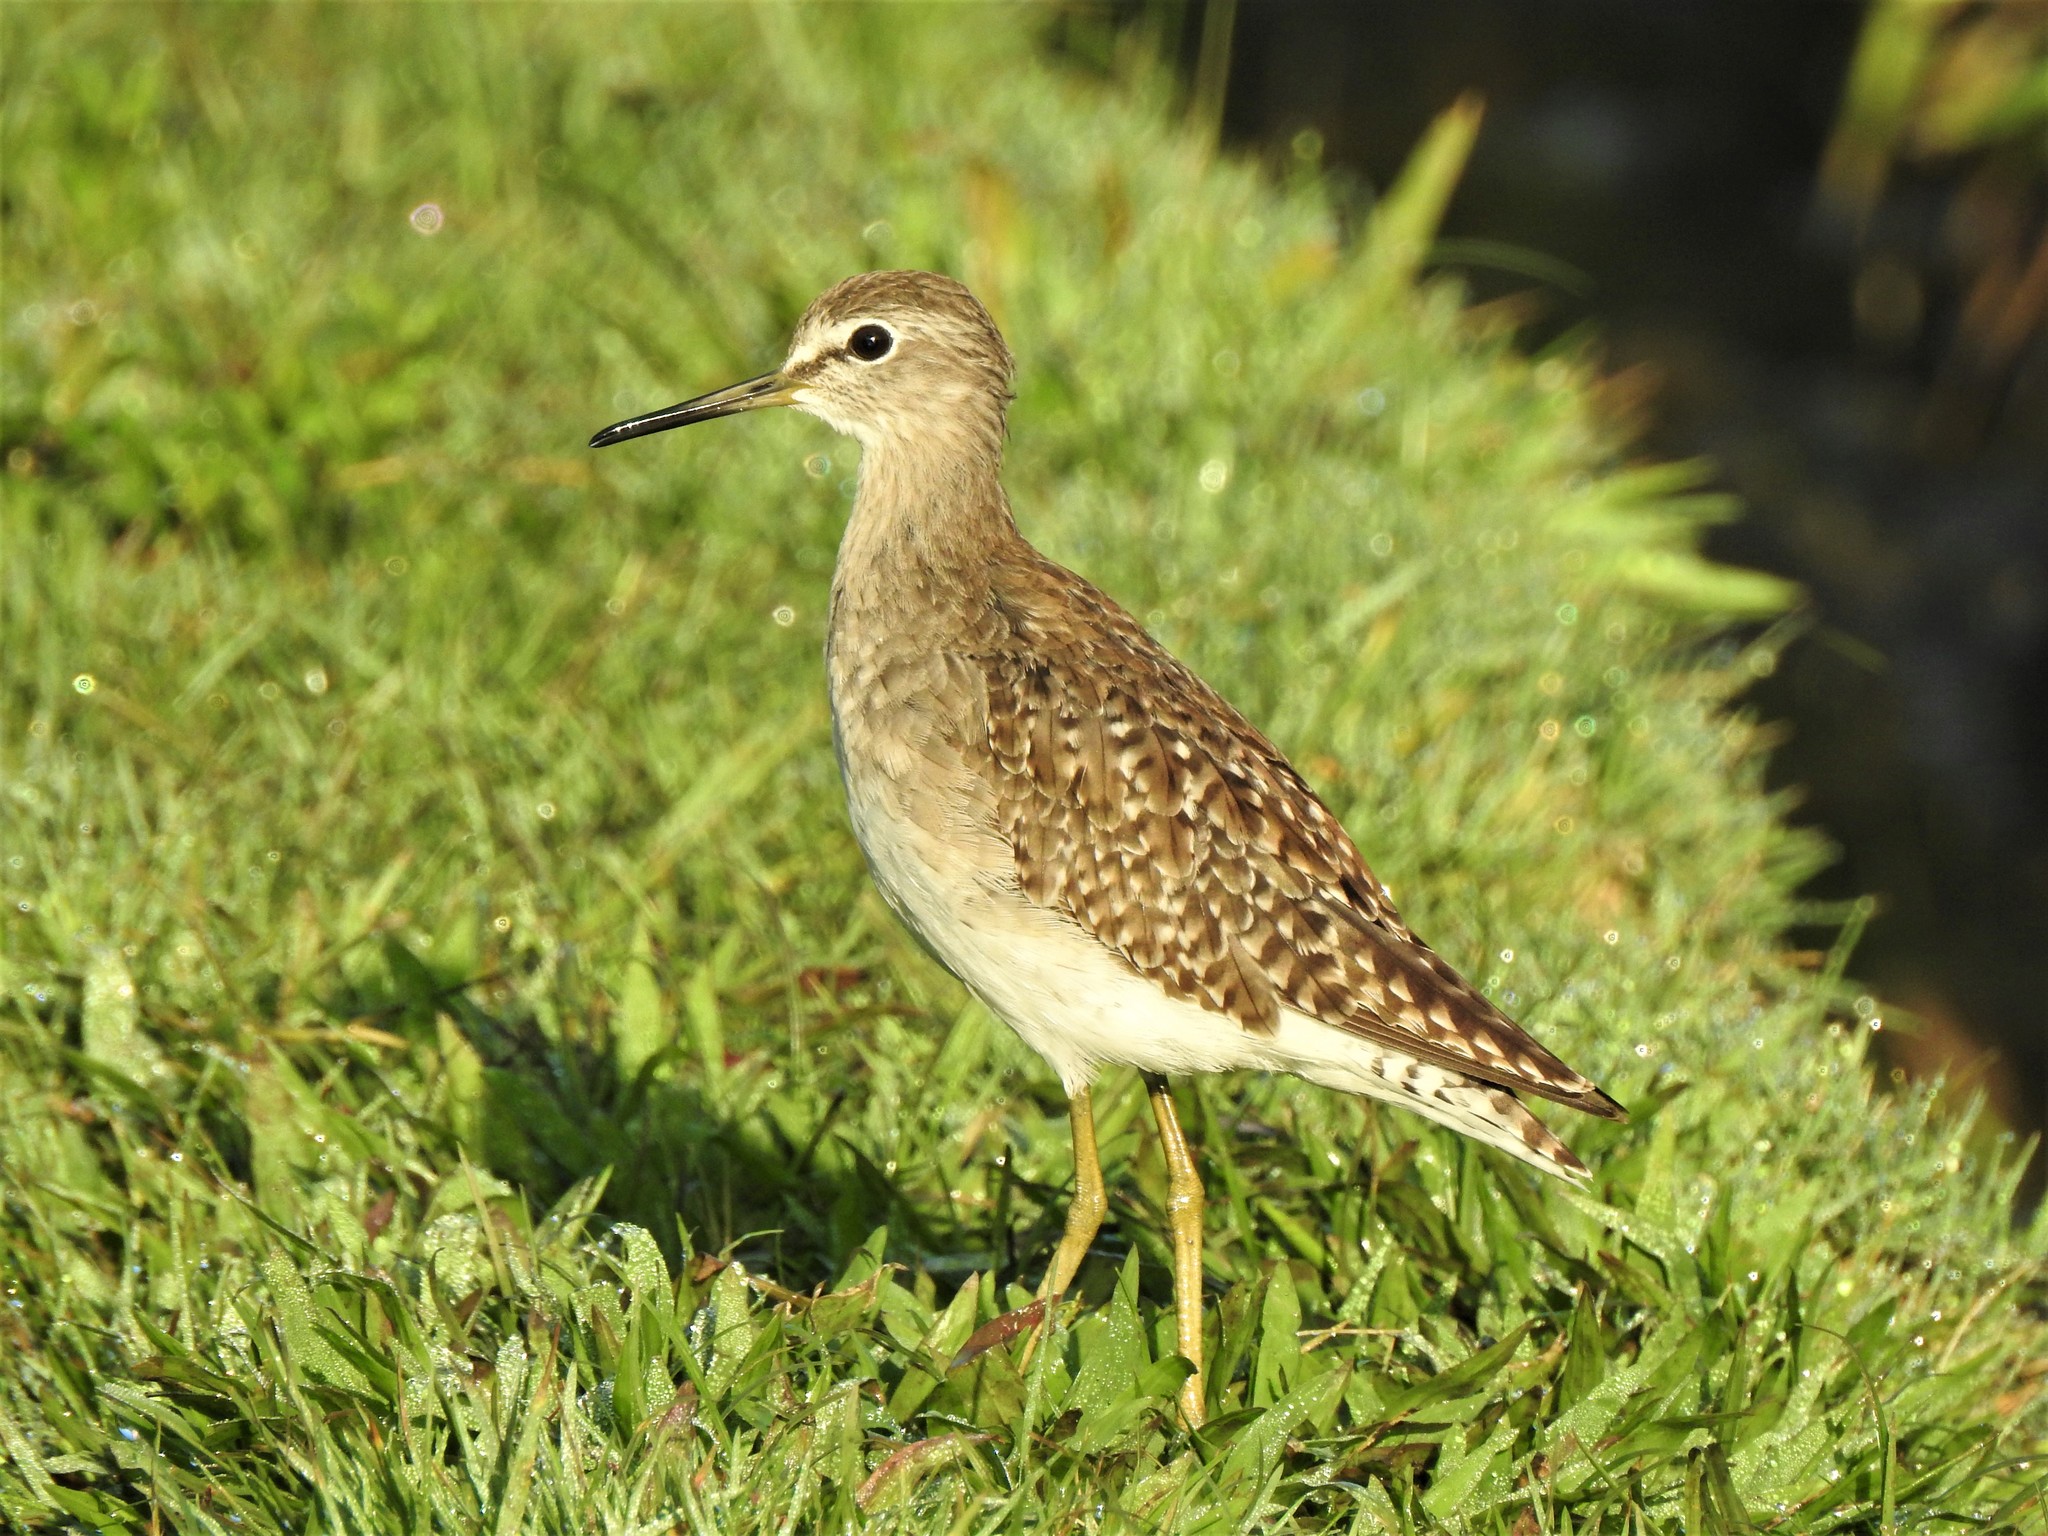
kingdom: Animalia
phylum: Chordata
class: Aves
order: Charadriiformes
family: Scolopacidae
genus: Tringa
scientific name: Tringa glareola
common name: Wood sandpiper
